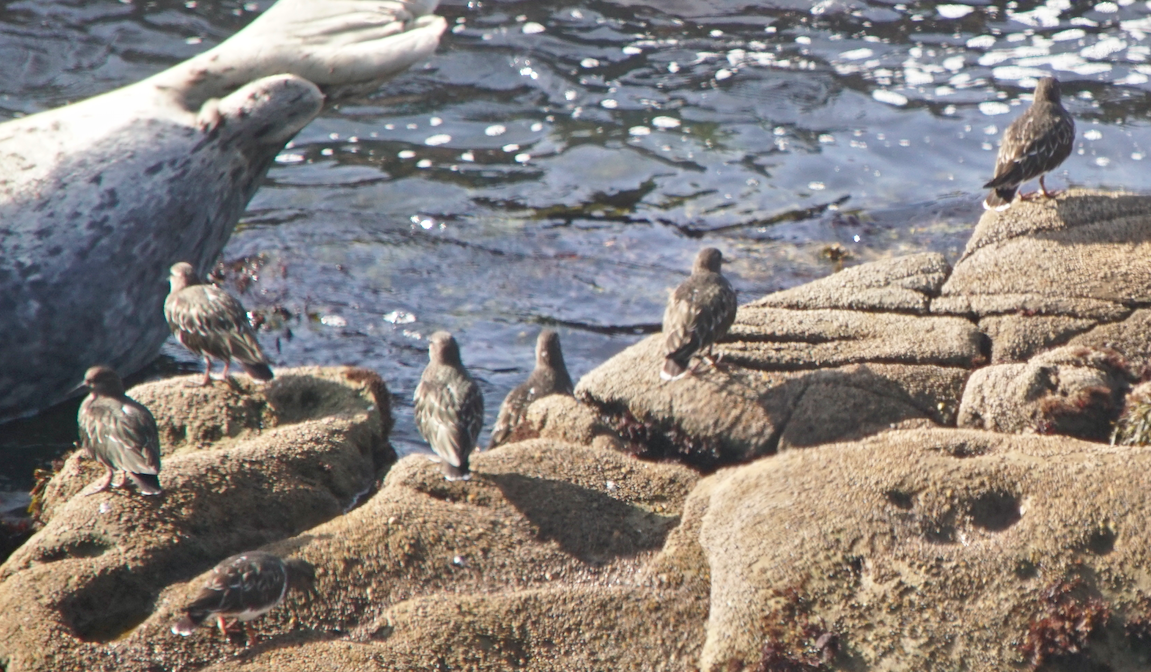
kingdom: Animalia
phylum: Chordata
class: Aves
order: Charadriiformes
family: Scolopacidae
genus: Arenaria
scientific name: Arenaria melanocephala
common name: Black turnstone
